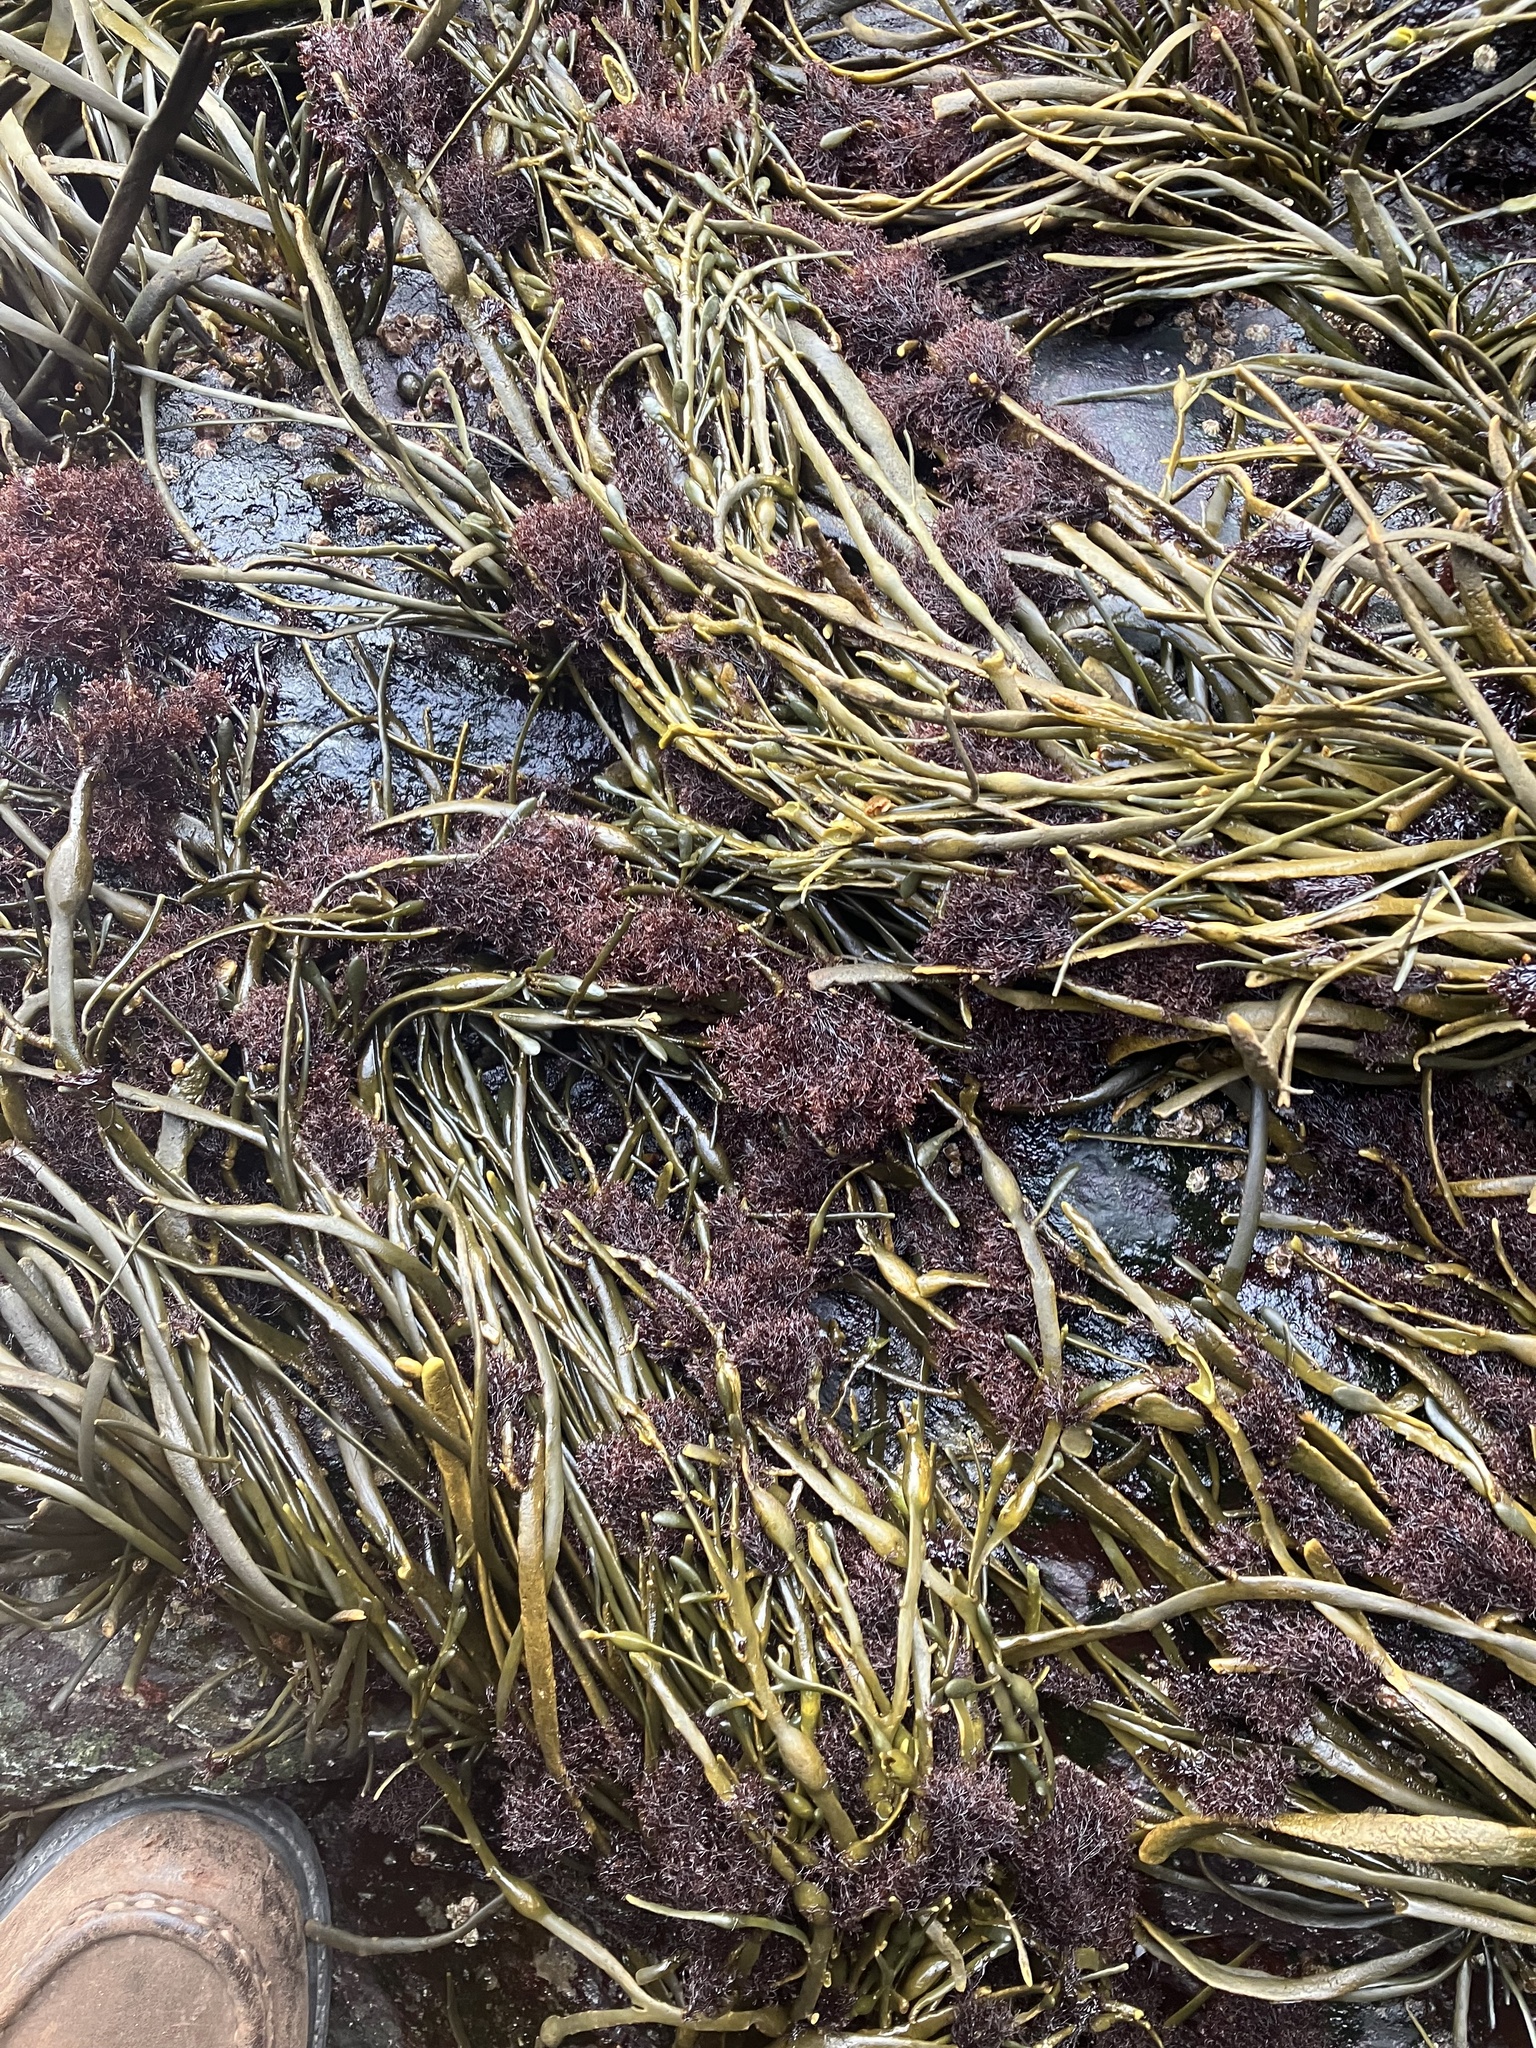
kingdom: Plantae
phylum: Rhodophyta
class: Florideophyceae
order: Ceramiales
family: Rhodomelaceae
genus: Vertebrata
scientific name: Vertebrata lanosa
